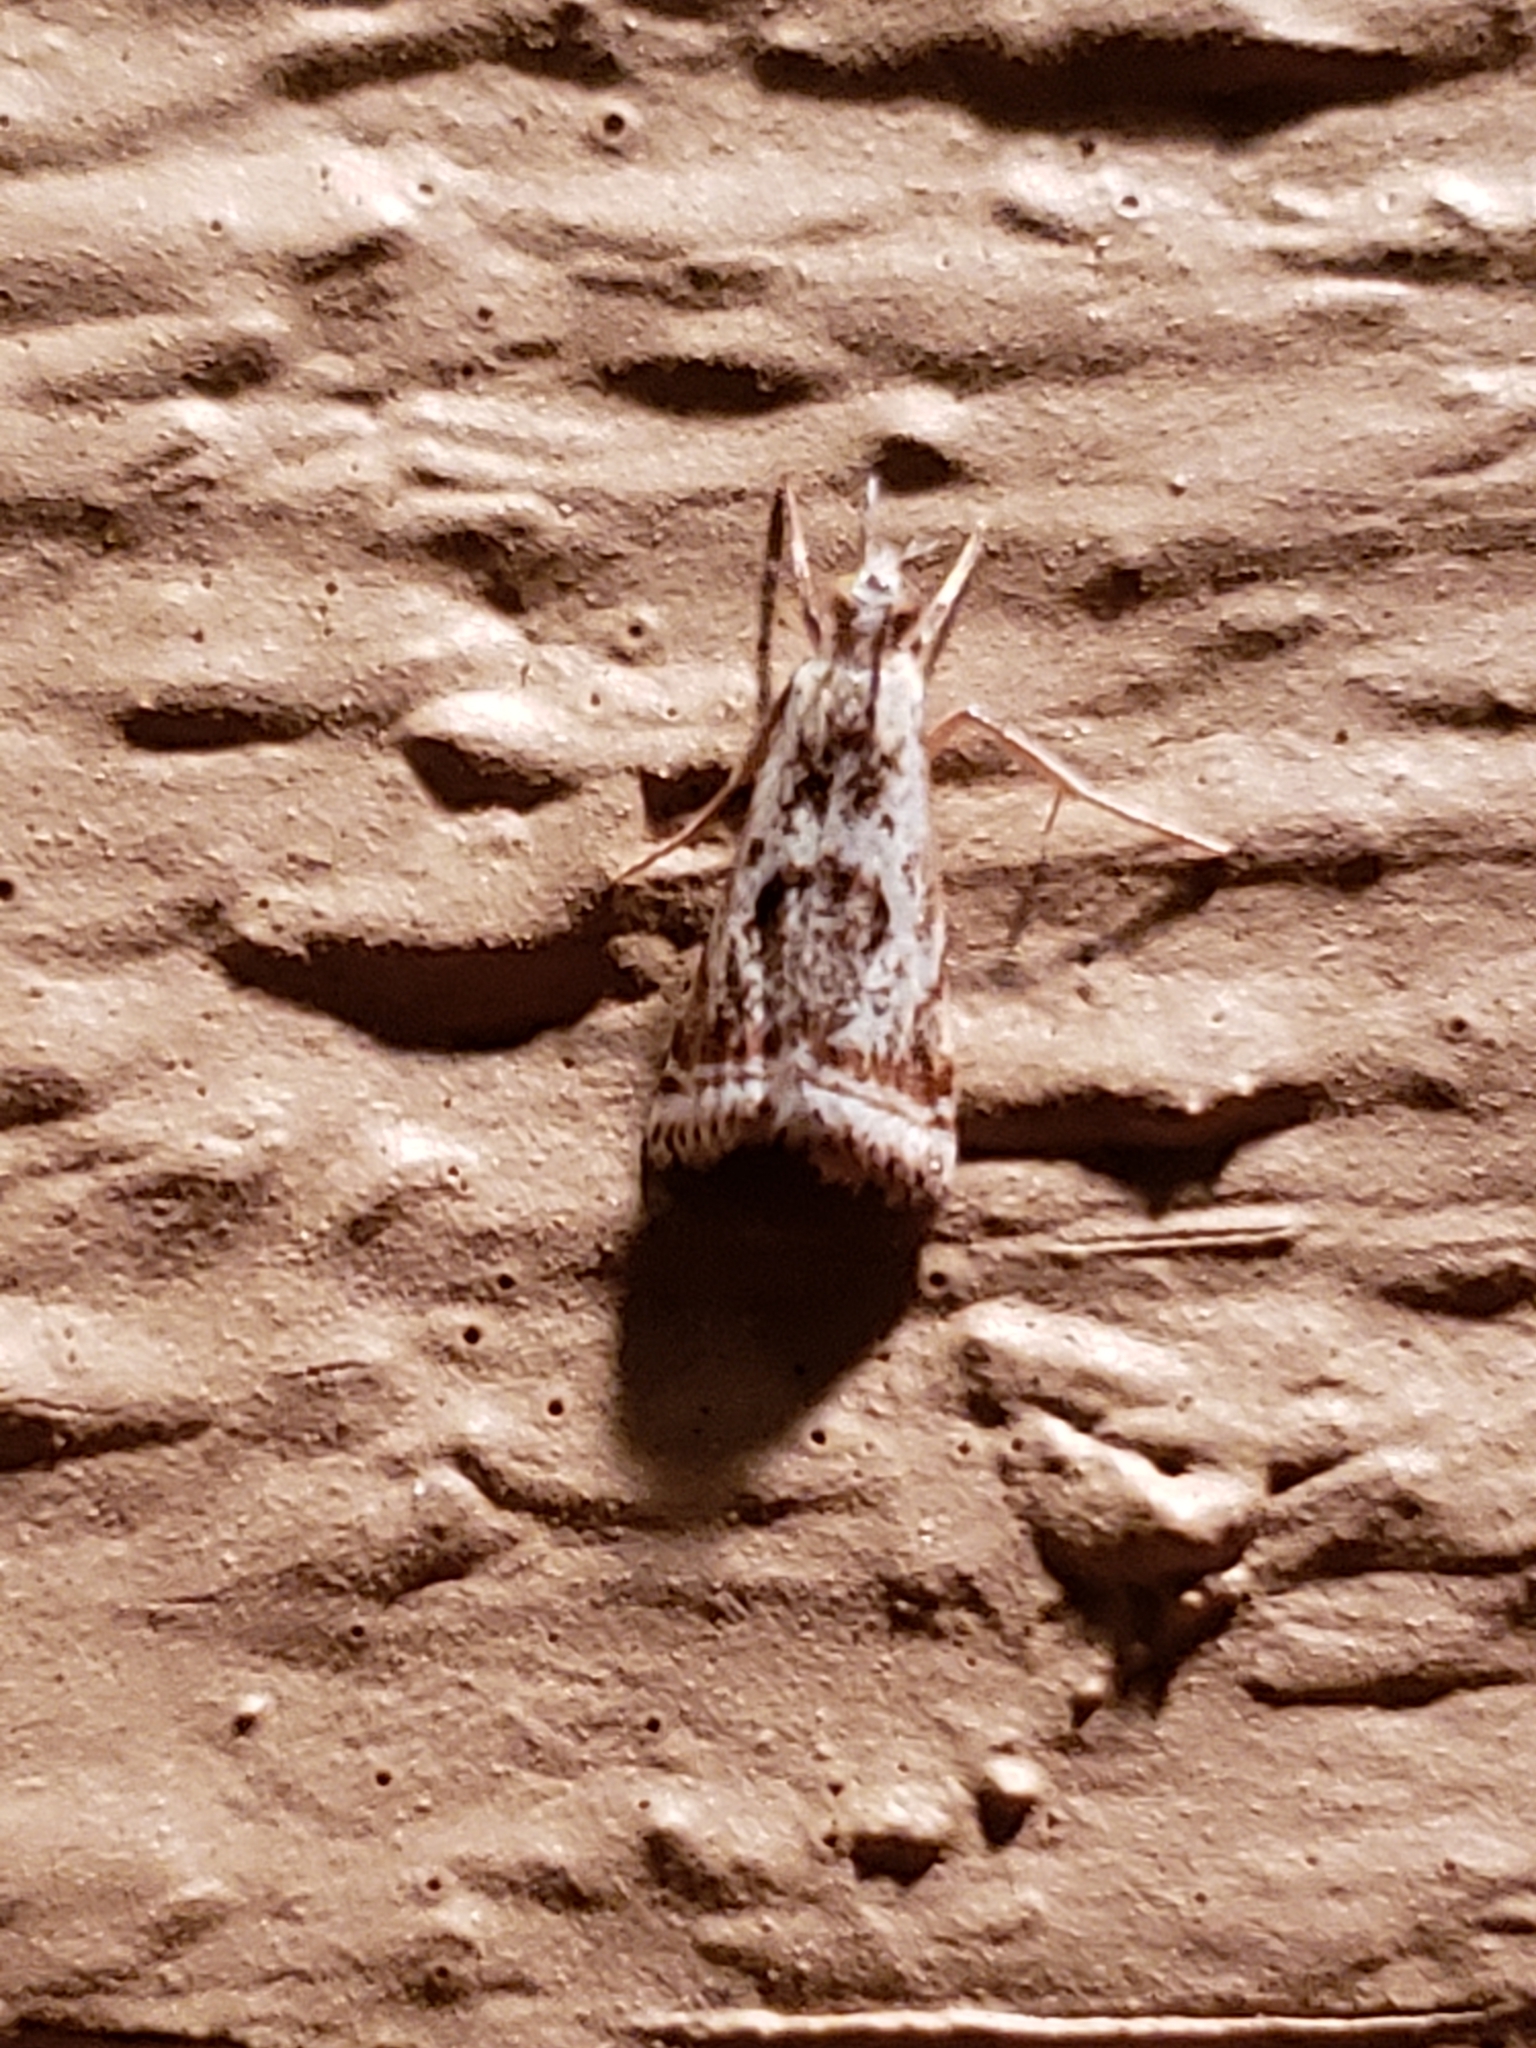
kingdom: Animalia
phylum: Arthropoda
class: Insecta
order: Lepidoptera
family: Crambidae
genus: Microcrambus
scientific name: Microcrambus elegans
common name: Elegant grass-veneer
